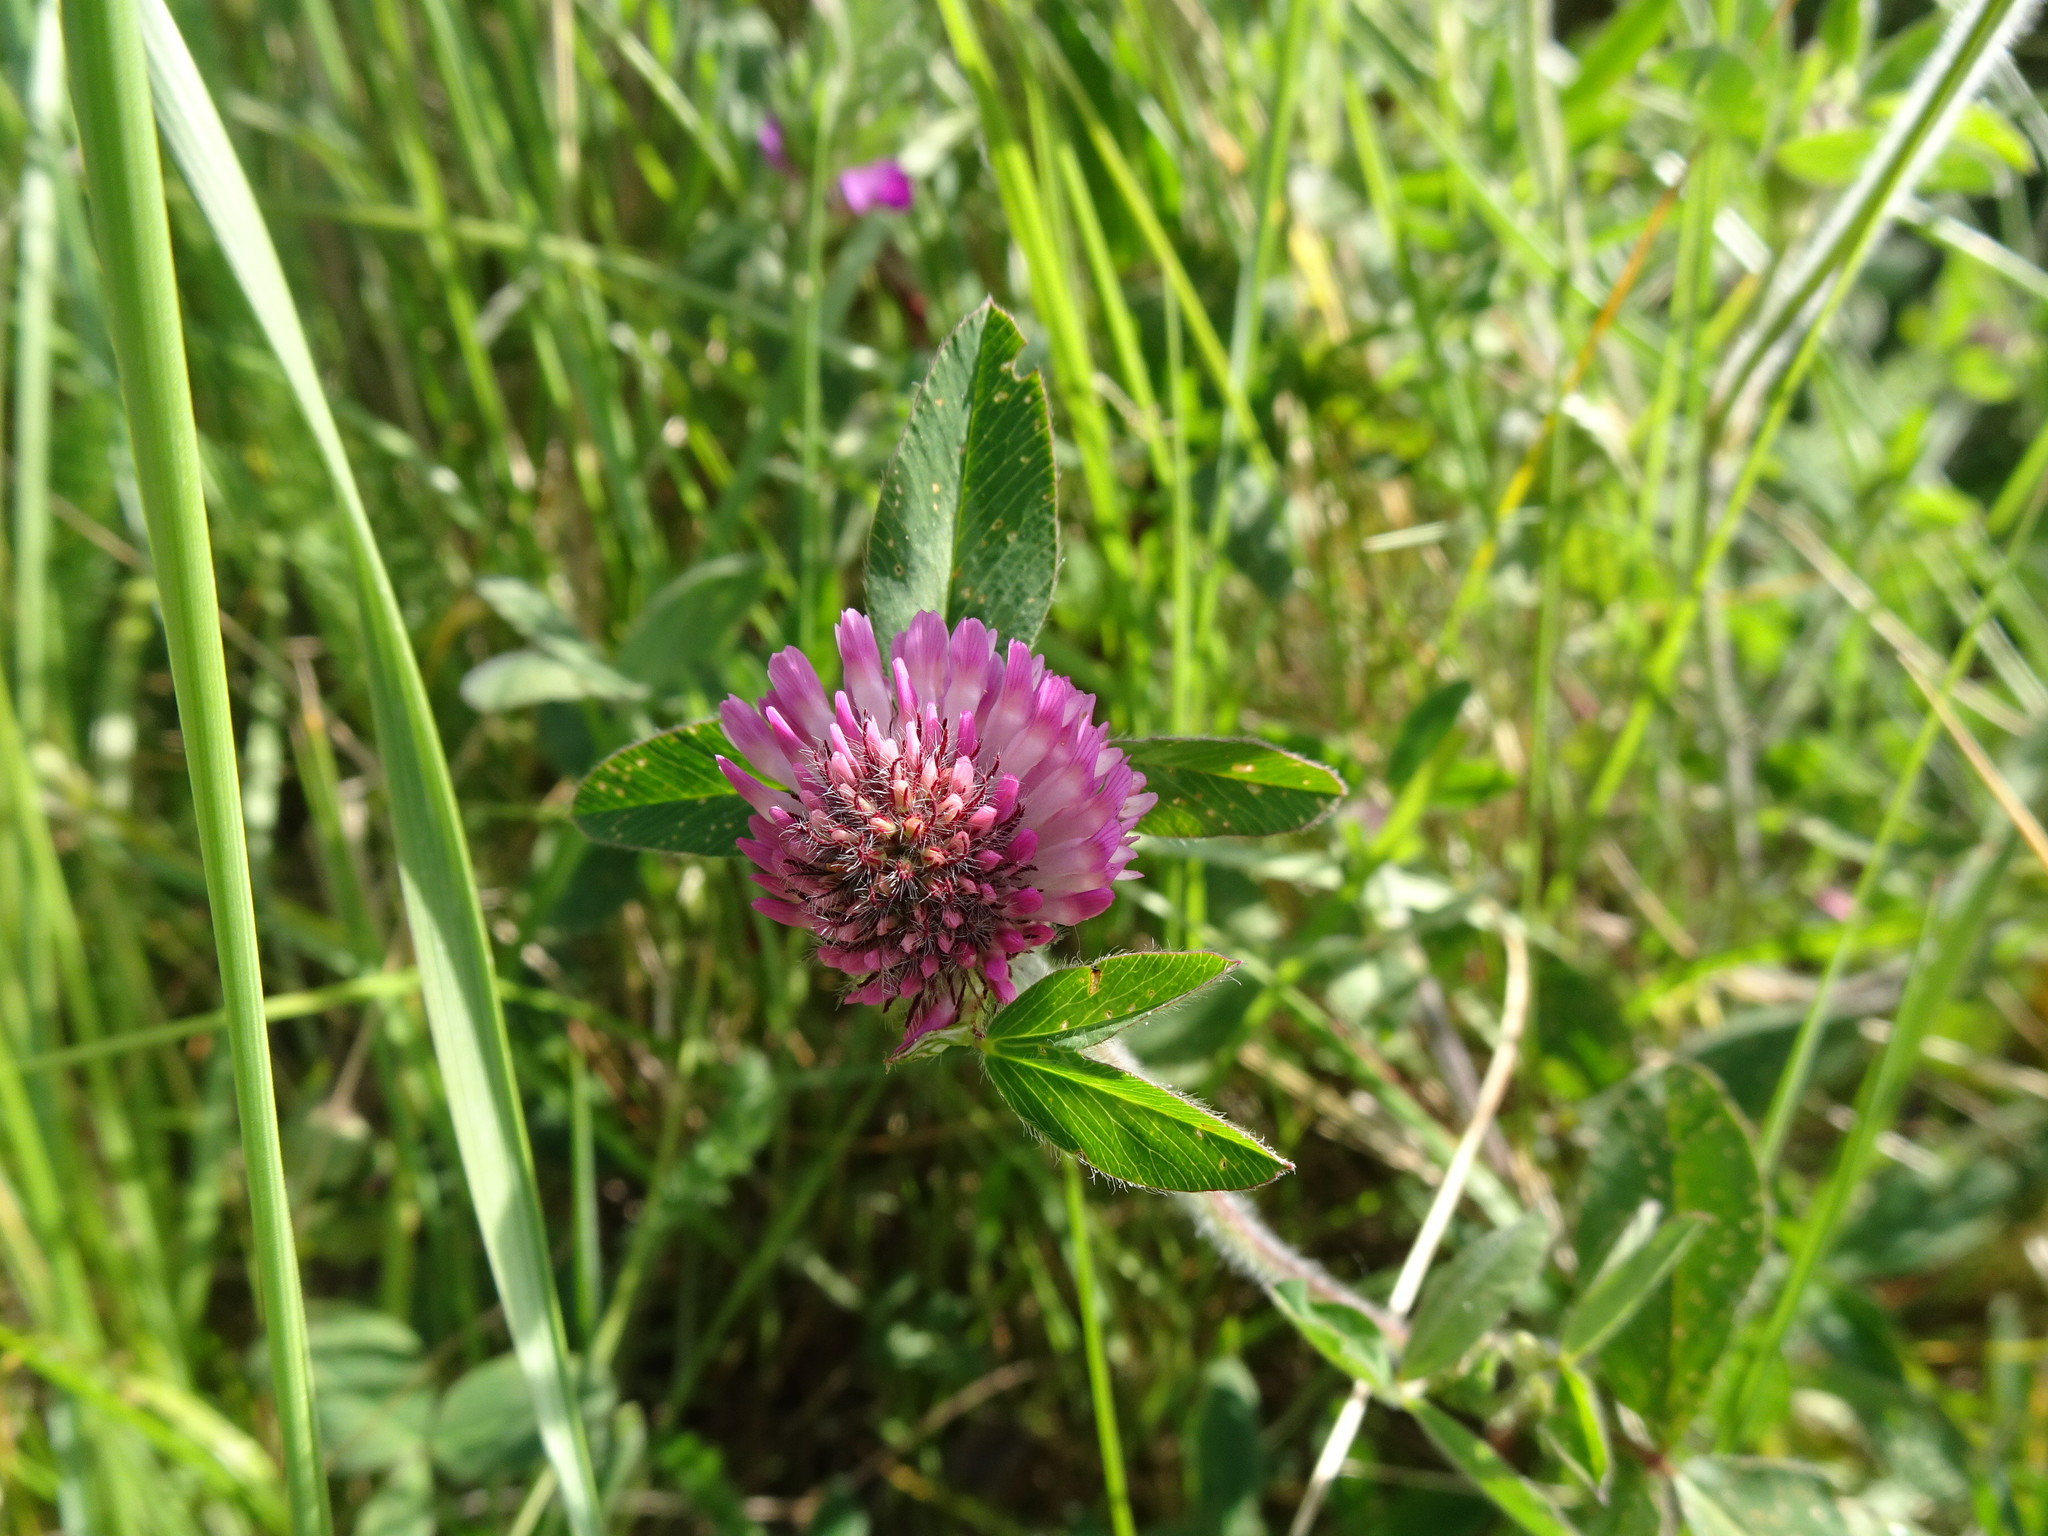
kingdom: Plantae
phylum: Tracheophyta
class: Magnoliopsida
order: Fabales
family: Fabaceae
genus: Trifolium
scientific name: Trifolium pratense
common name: Red clover
